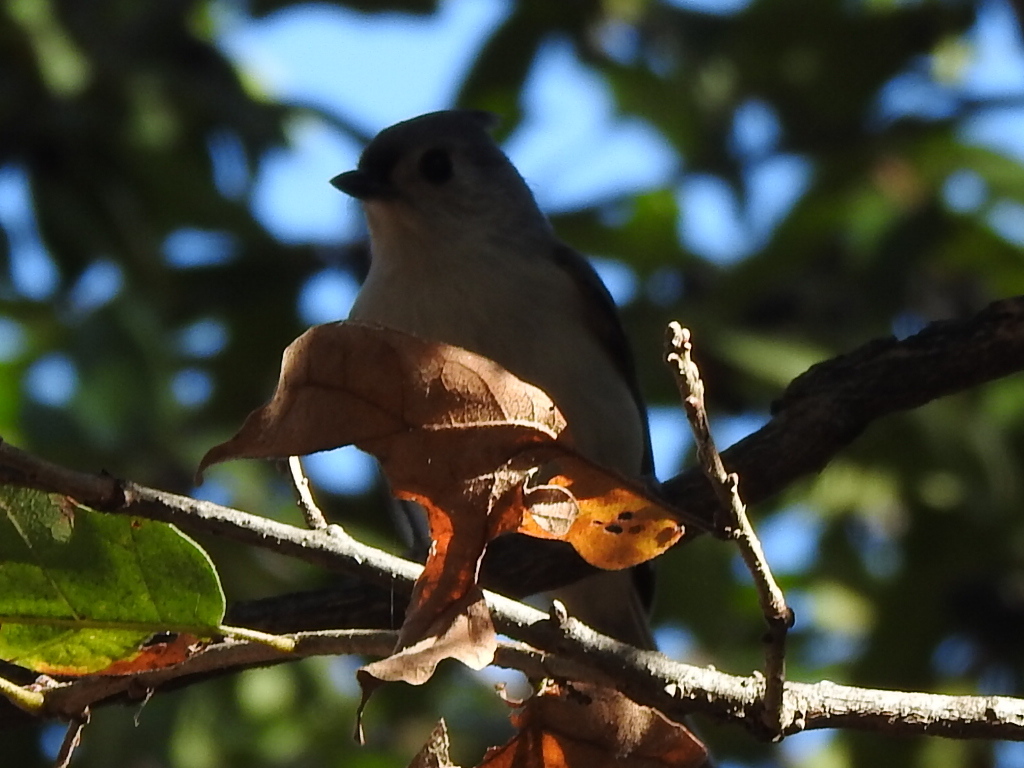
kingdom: Animalia
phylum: Chordata
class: Aves
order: Passeriformes
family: Paridae
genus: Baeolophus
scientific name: Baeolophus bicolor
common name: Tufted titmouse
